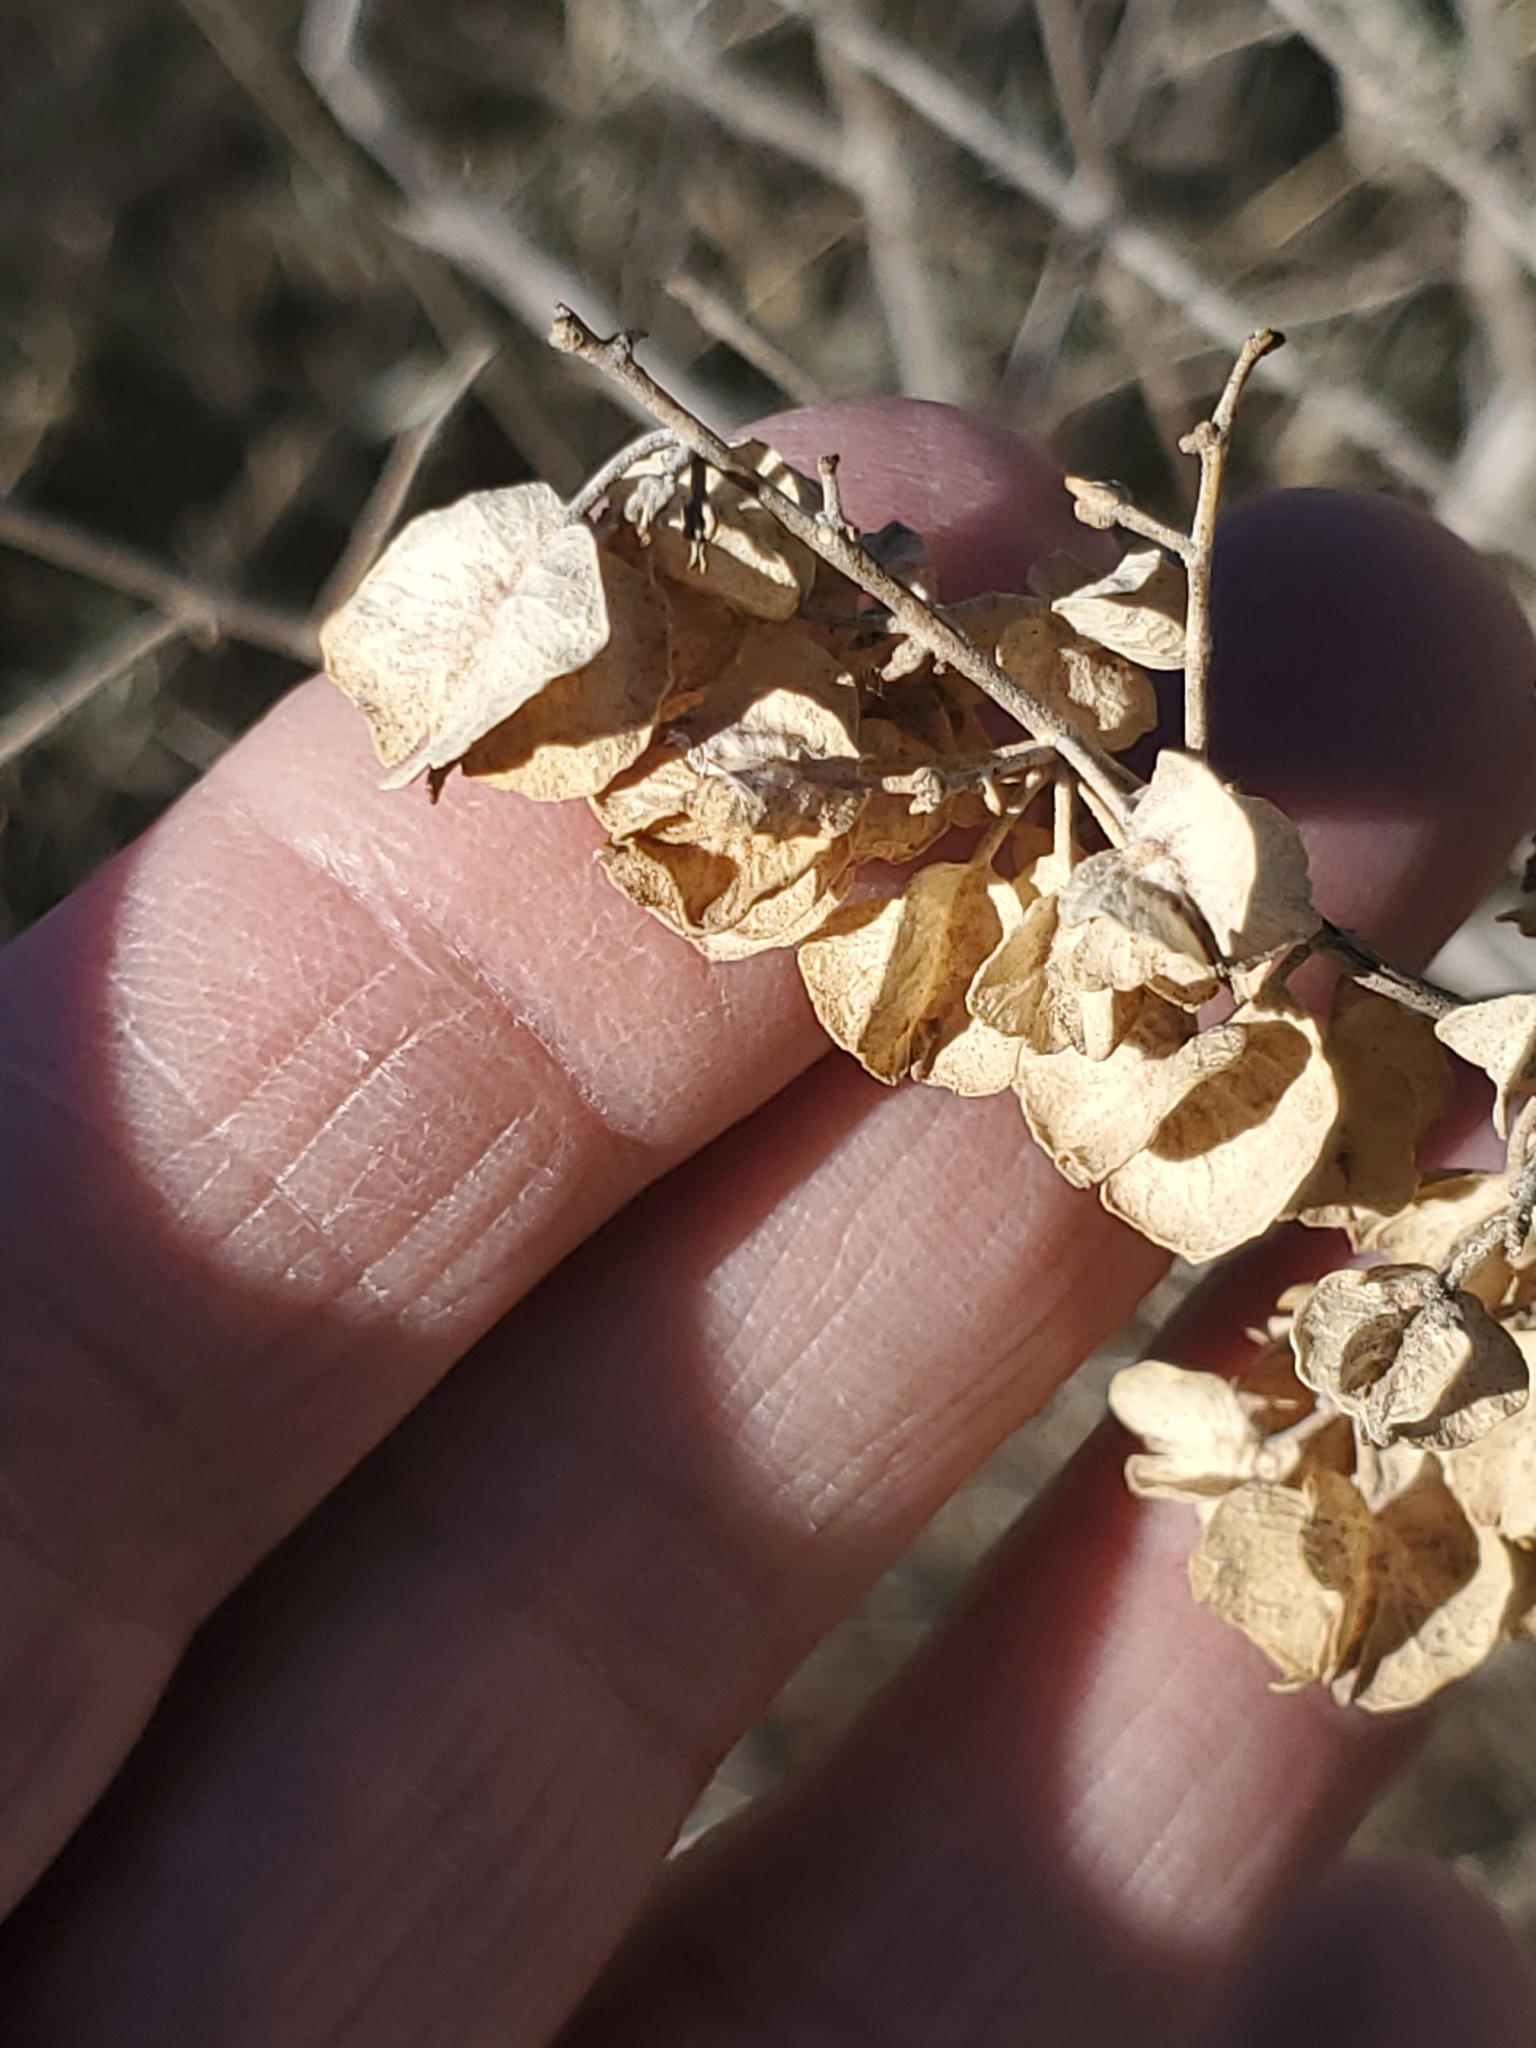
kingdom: Plantae
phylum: Tracheophyta
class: Magnoliopsida
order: Caryophyllales
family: Amaranthaceae
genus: Atriplex
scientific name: Atriplex canescens
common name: Four-wing saltbush
